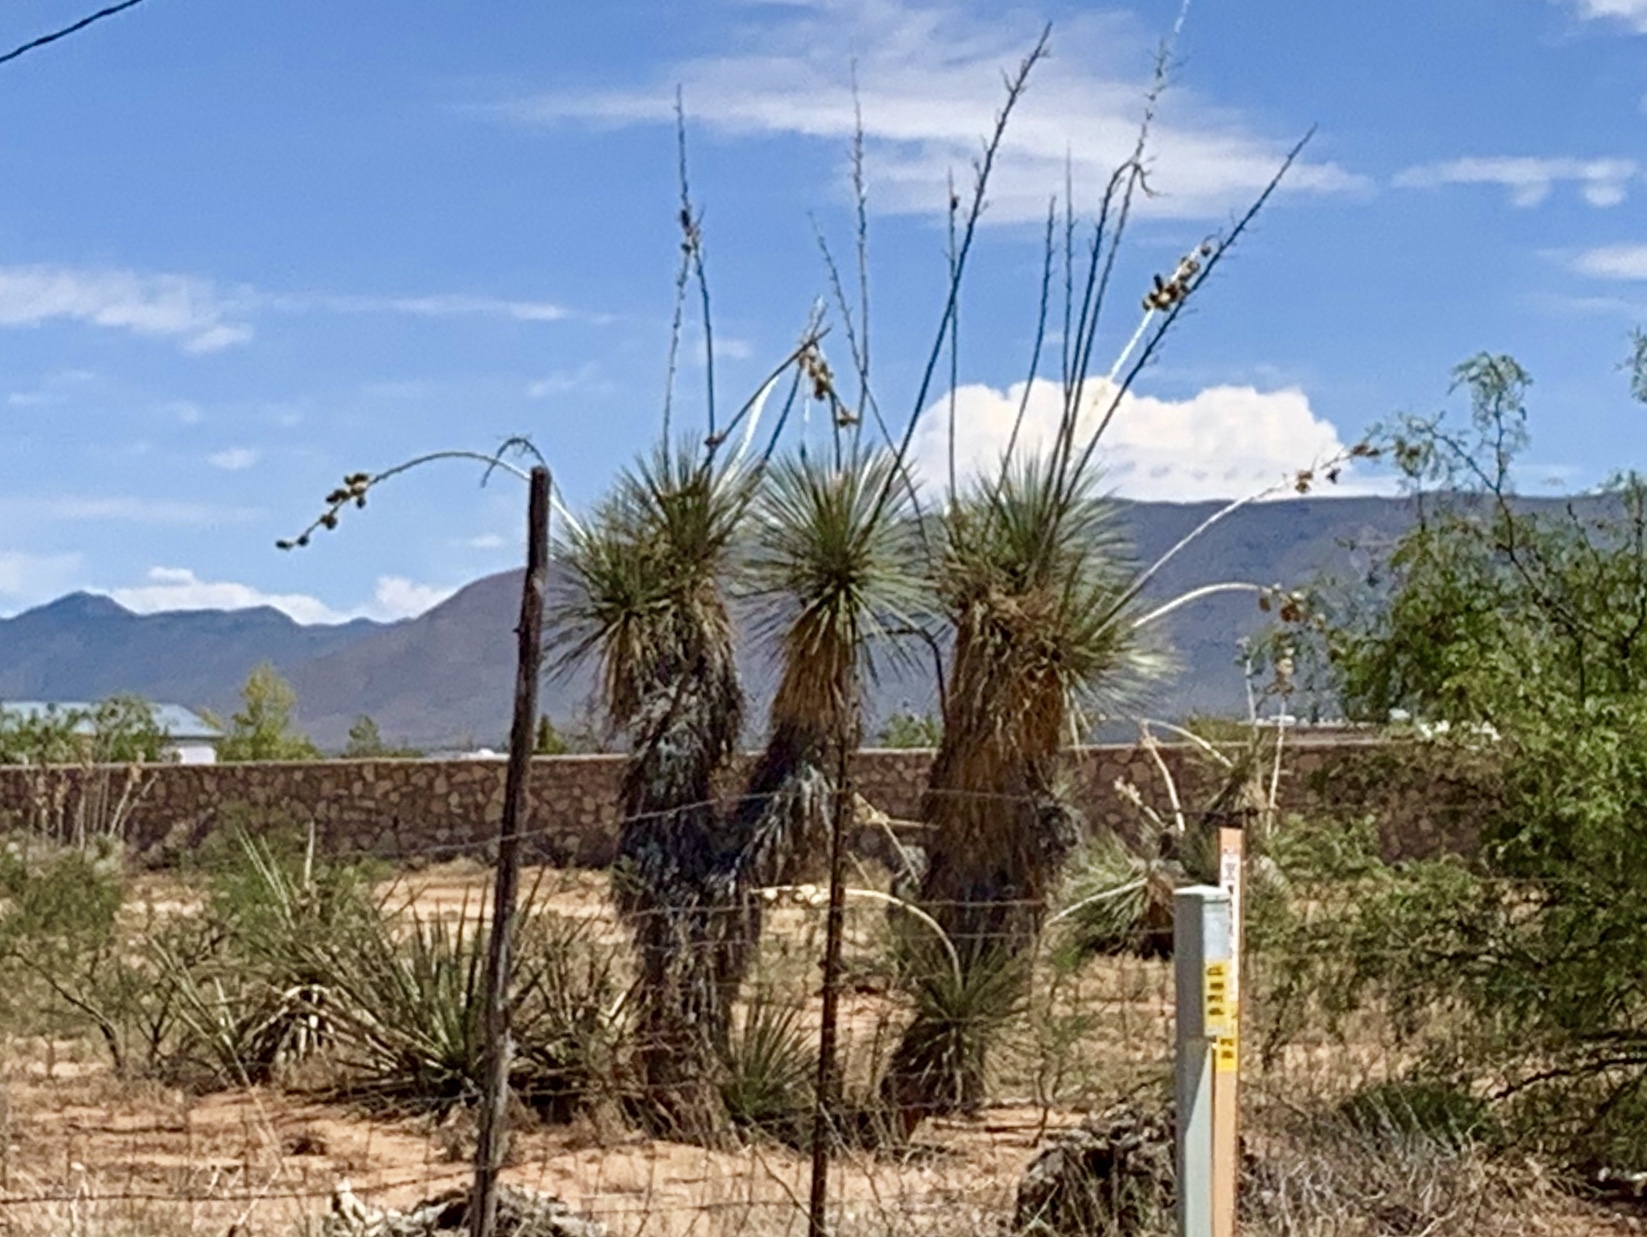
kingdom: Plantae
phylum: Tracheophyta
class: Liliopsida
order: Asparagales
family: Asparagaceae
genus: Yucca
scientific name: Yucca elata
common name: Palmella
